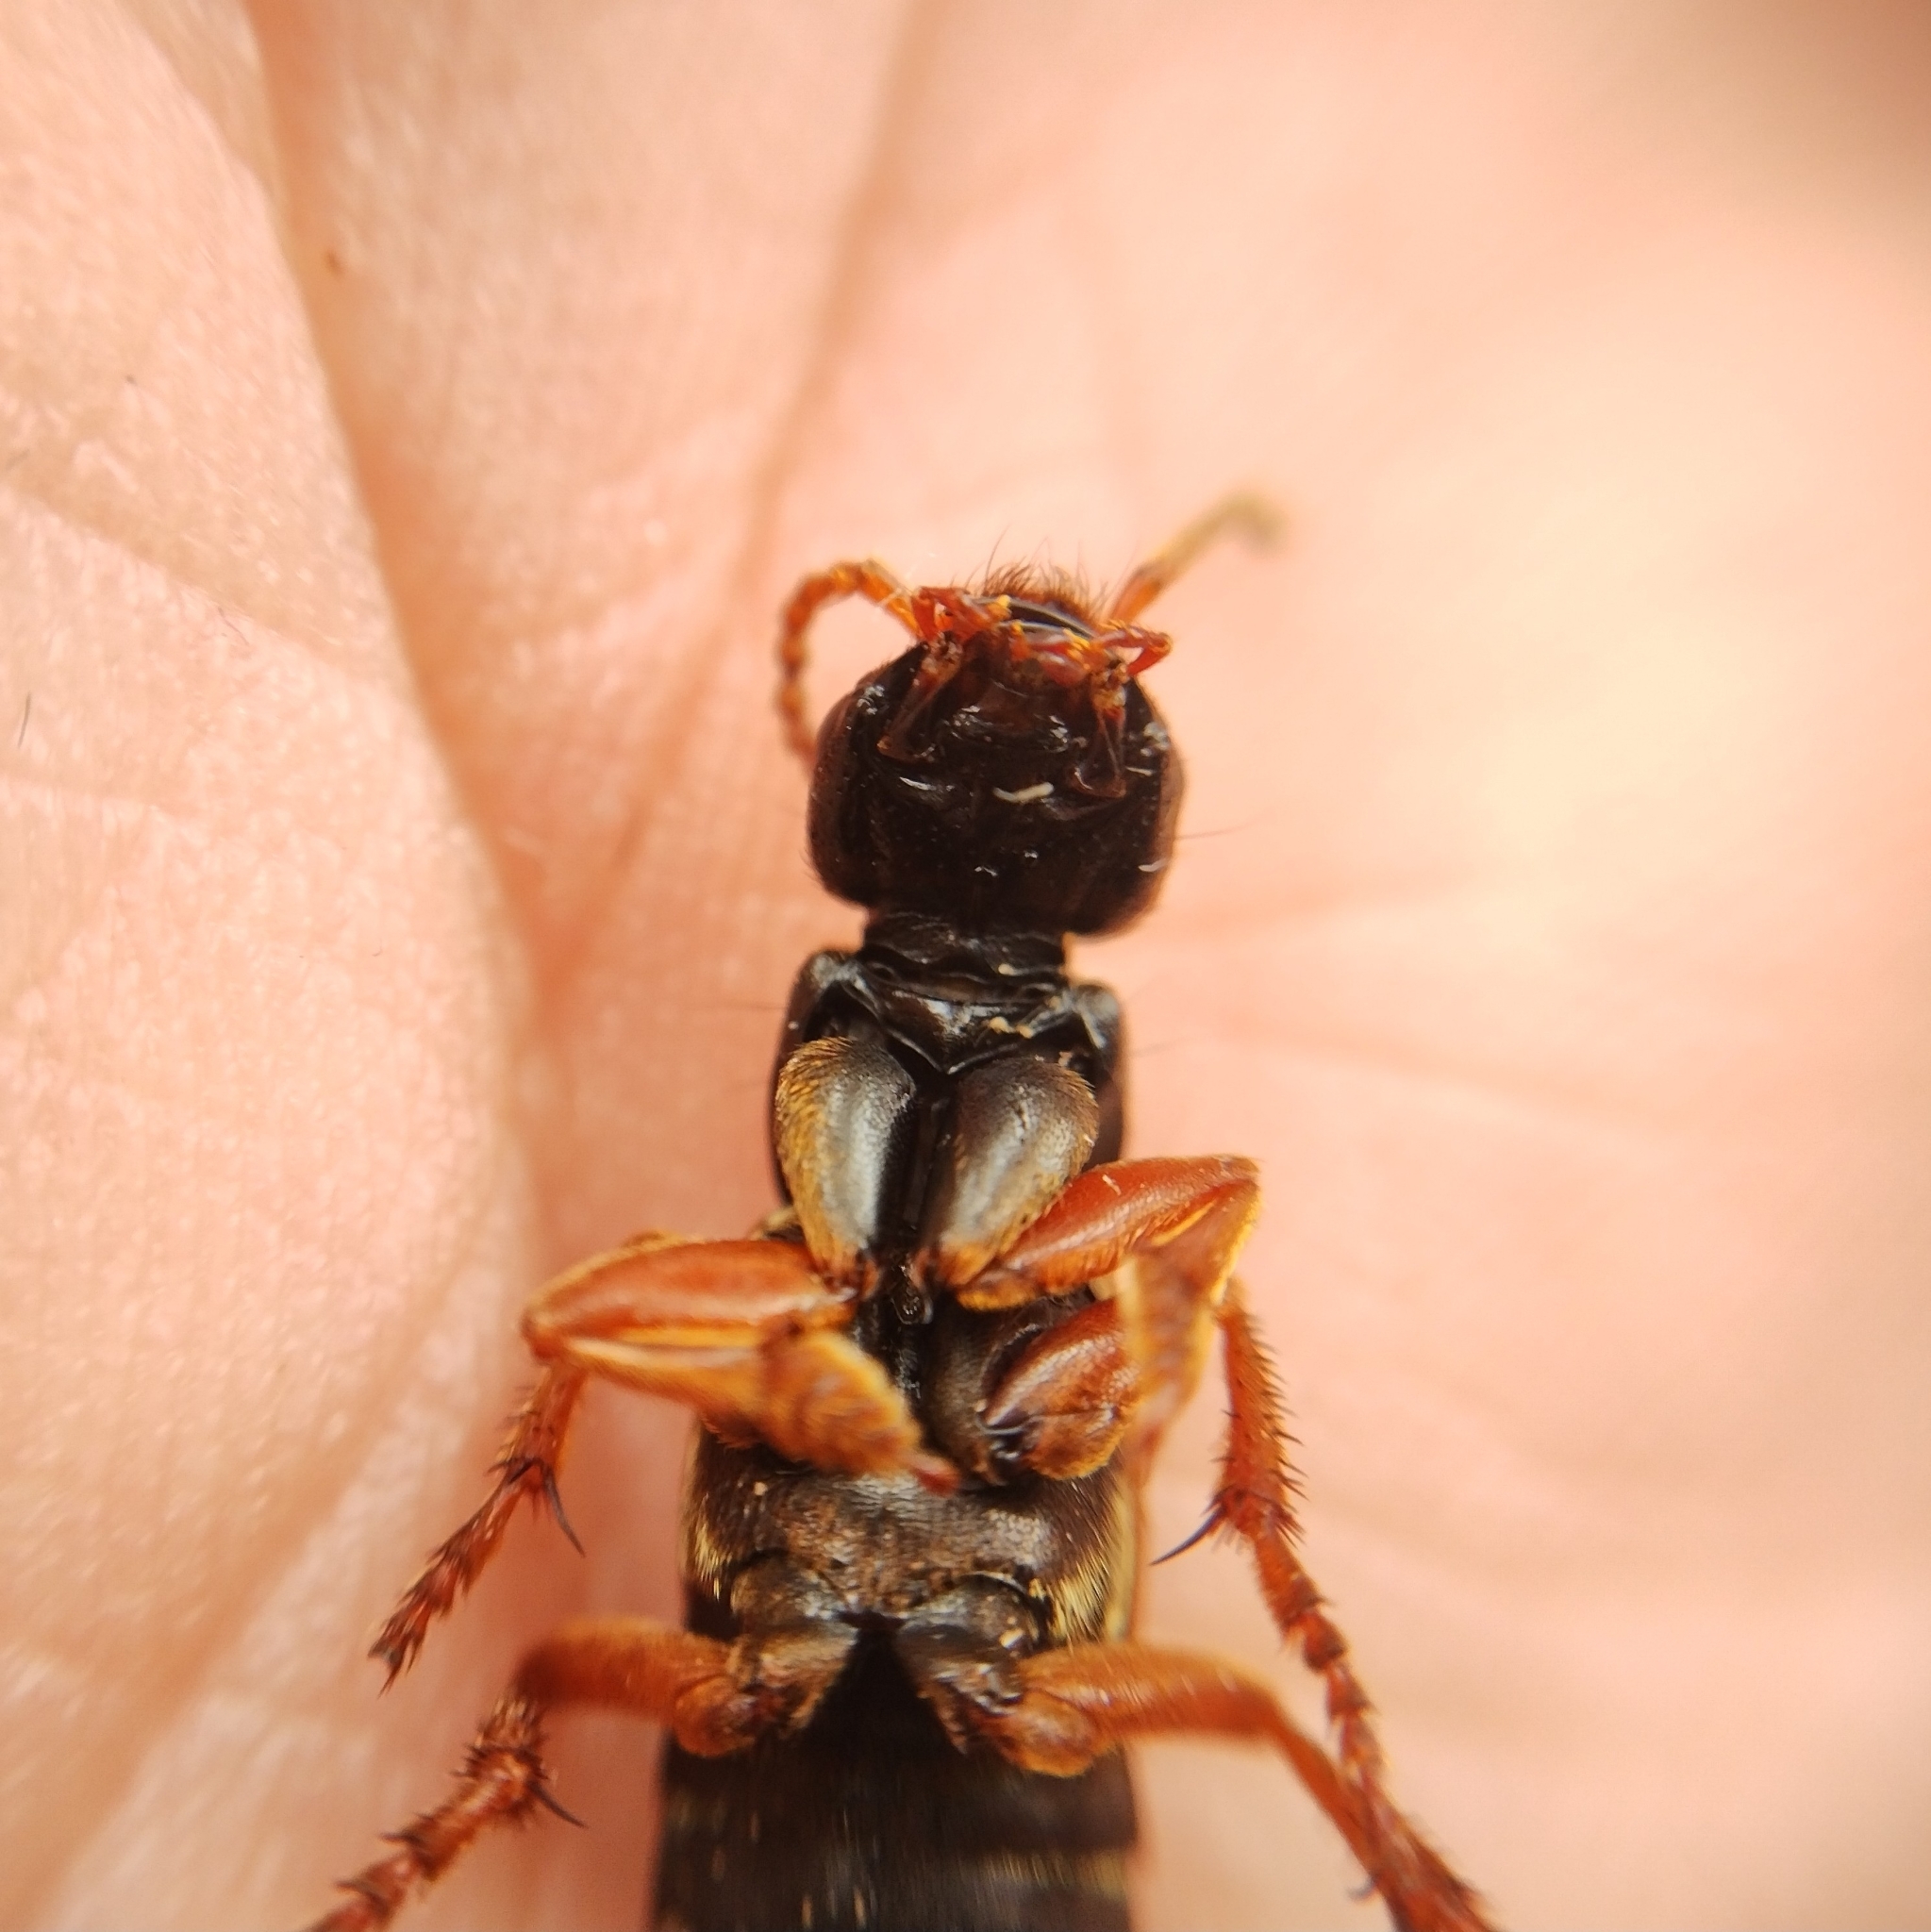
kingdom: Animalia
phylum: Arthropoda
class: Insecta
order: Coleoptera
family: Staphylinidae
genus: Staphylinus
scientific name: Staphylinus caesareus
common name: Staph beetle
